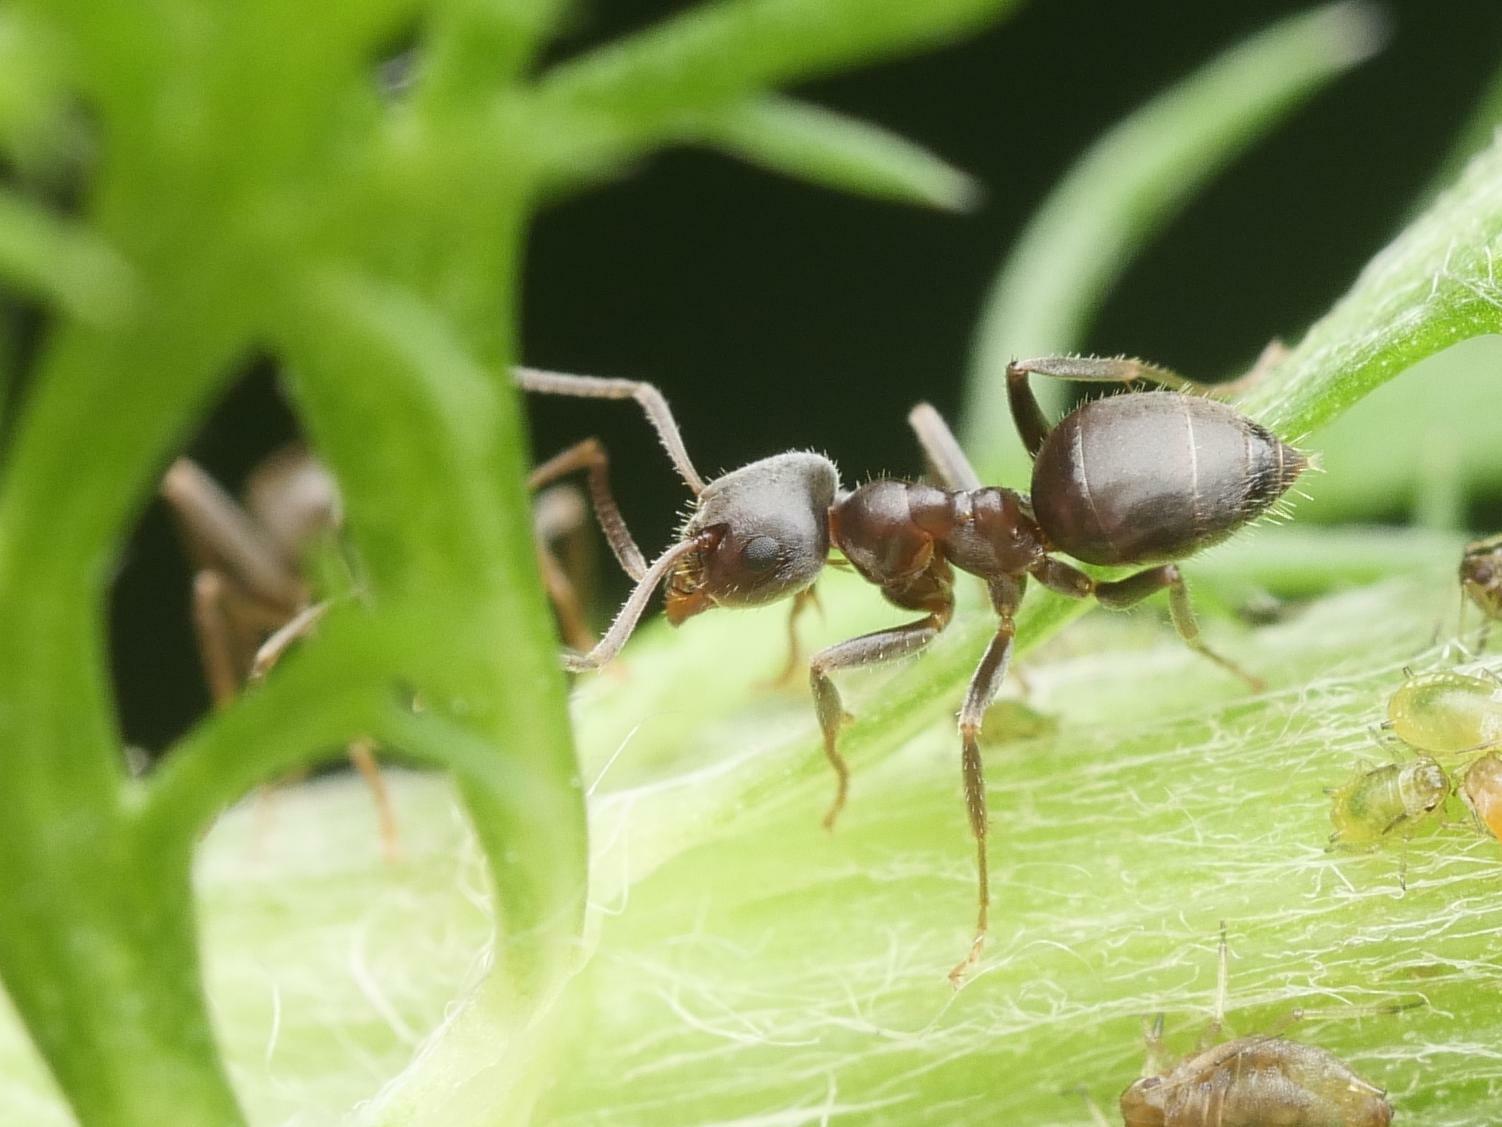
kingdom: Animalia
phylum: Arthropoda
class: Insecta
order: Hymenoptera
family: Formicidae
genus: Lasius
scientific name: Lasius niger
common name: Small black ant
